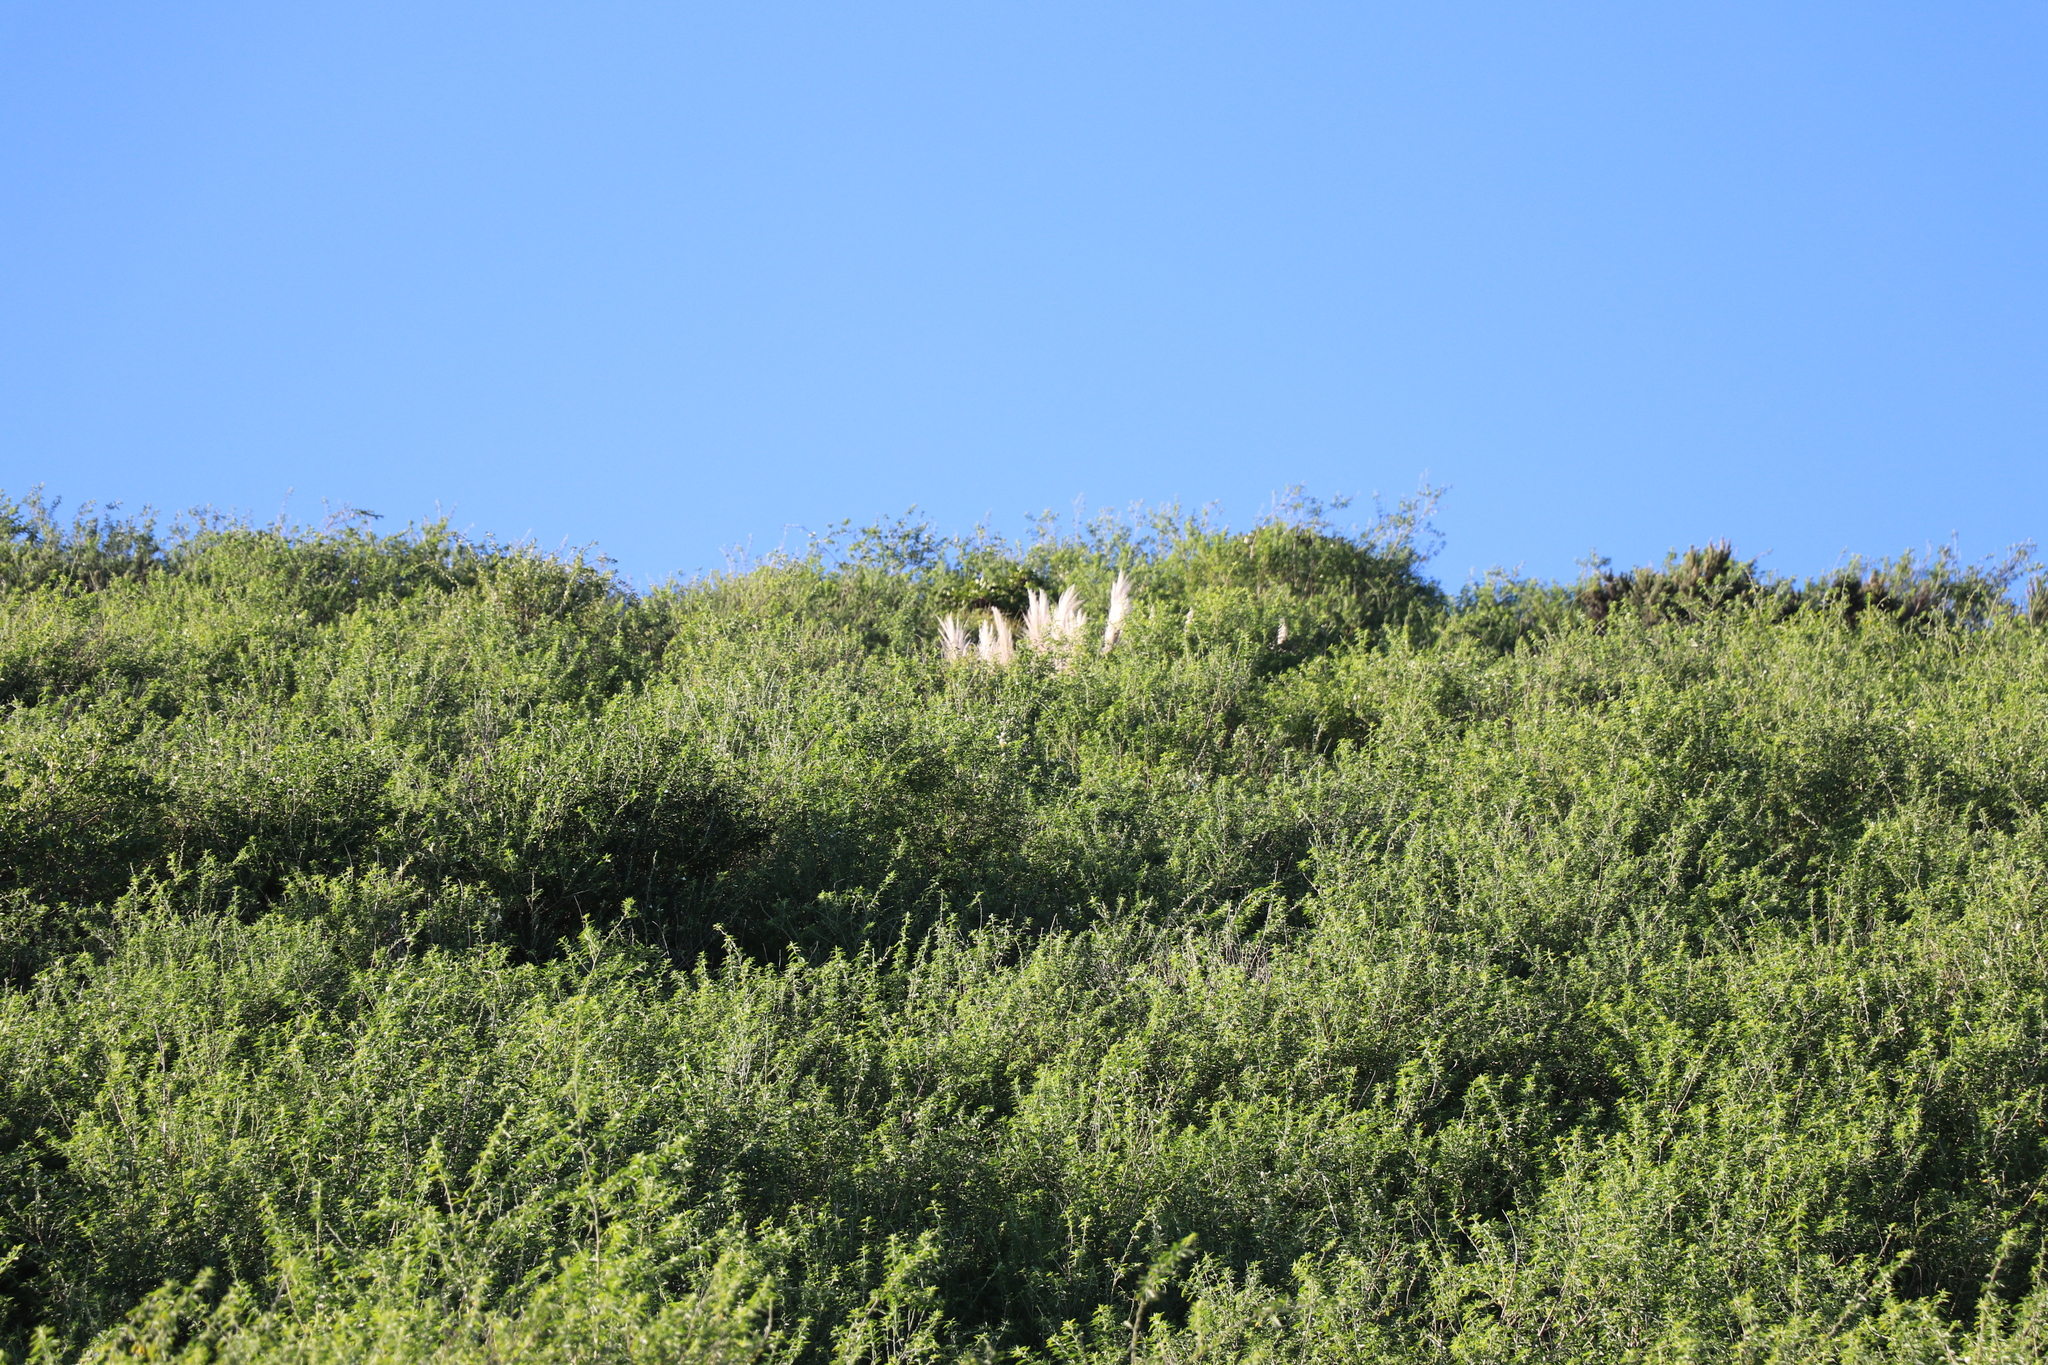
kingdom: Plantae
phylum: Tracheophyta
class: Liliopsida
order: Poales
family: Poaceae
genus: Cortaderia
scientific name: Cortaderia selloana
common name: Uruguayan pampas grass
